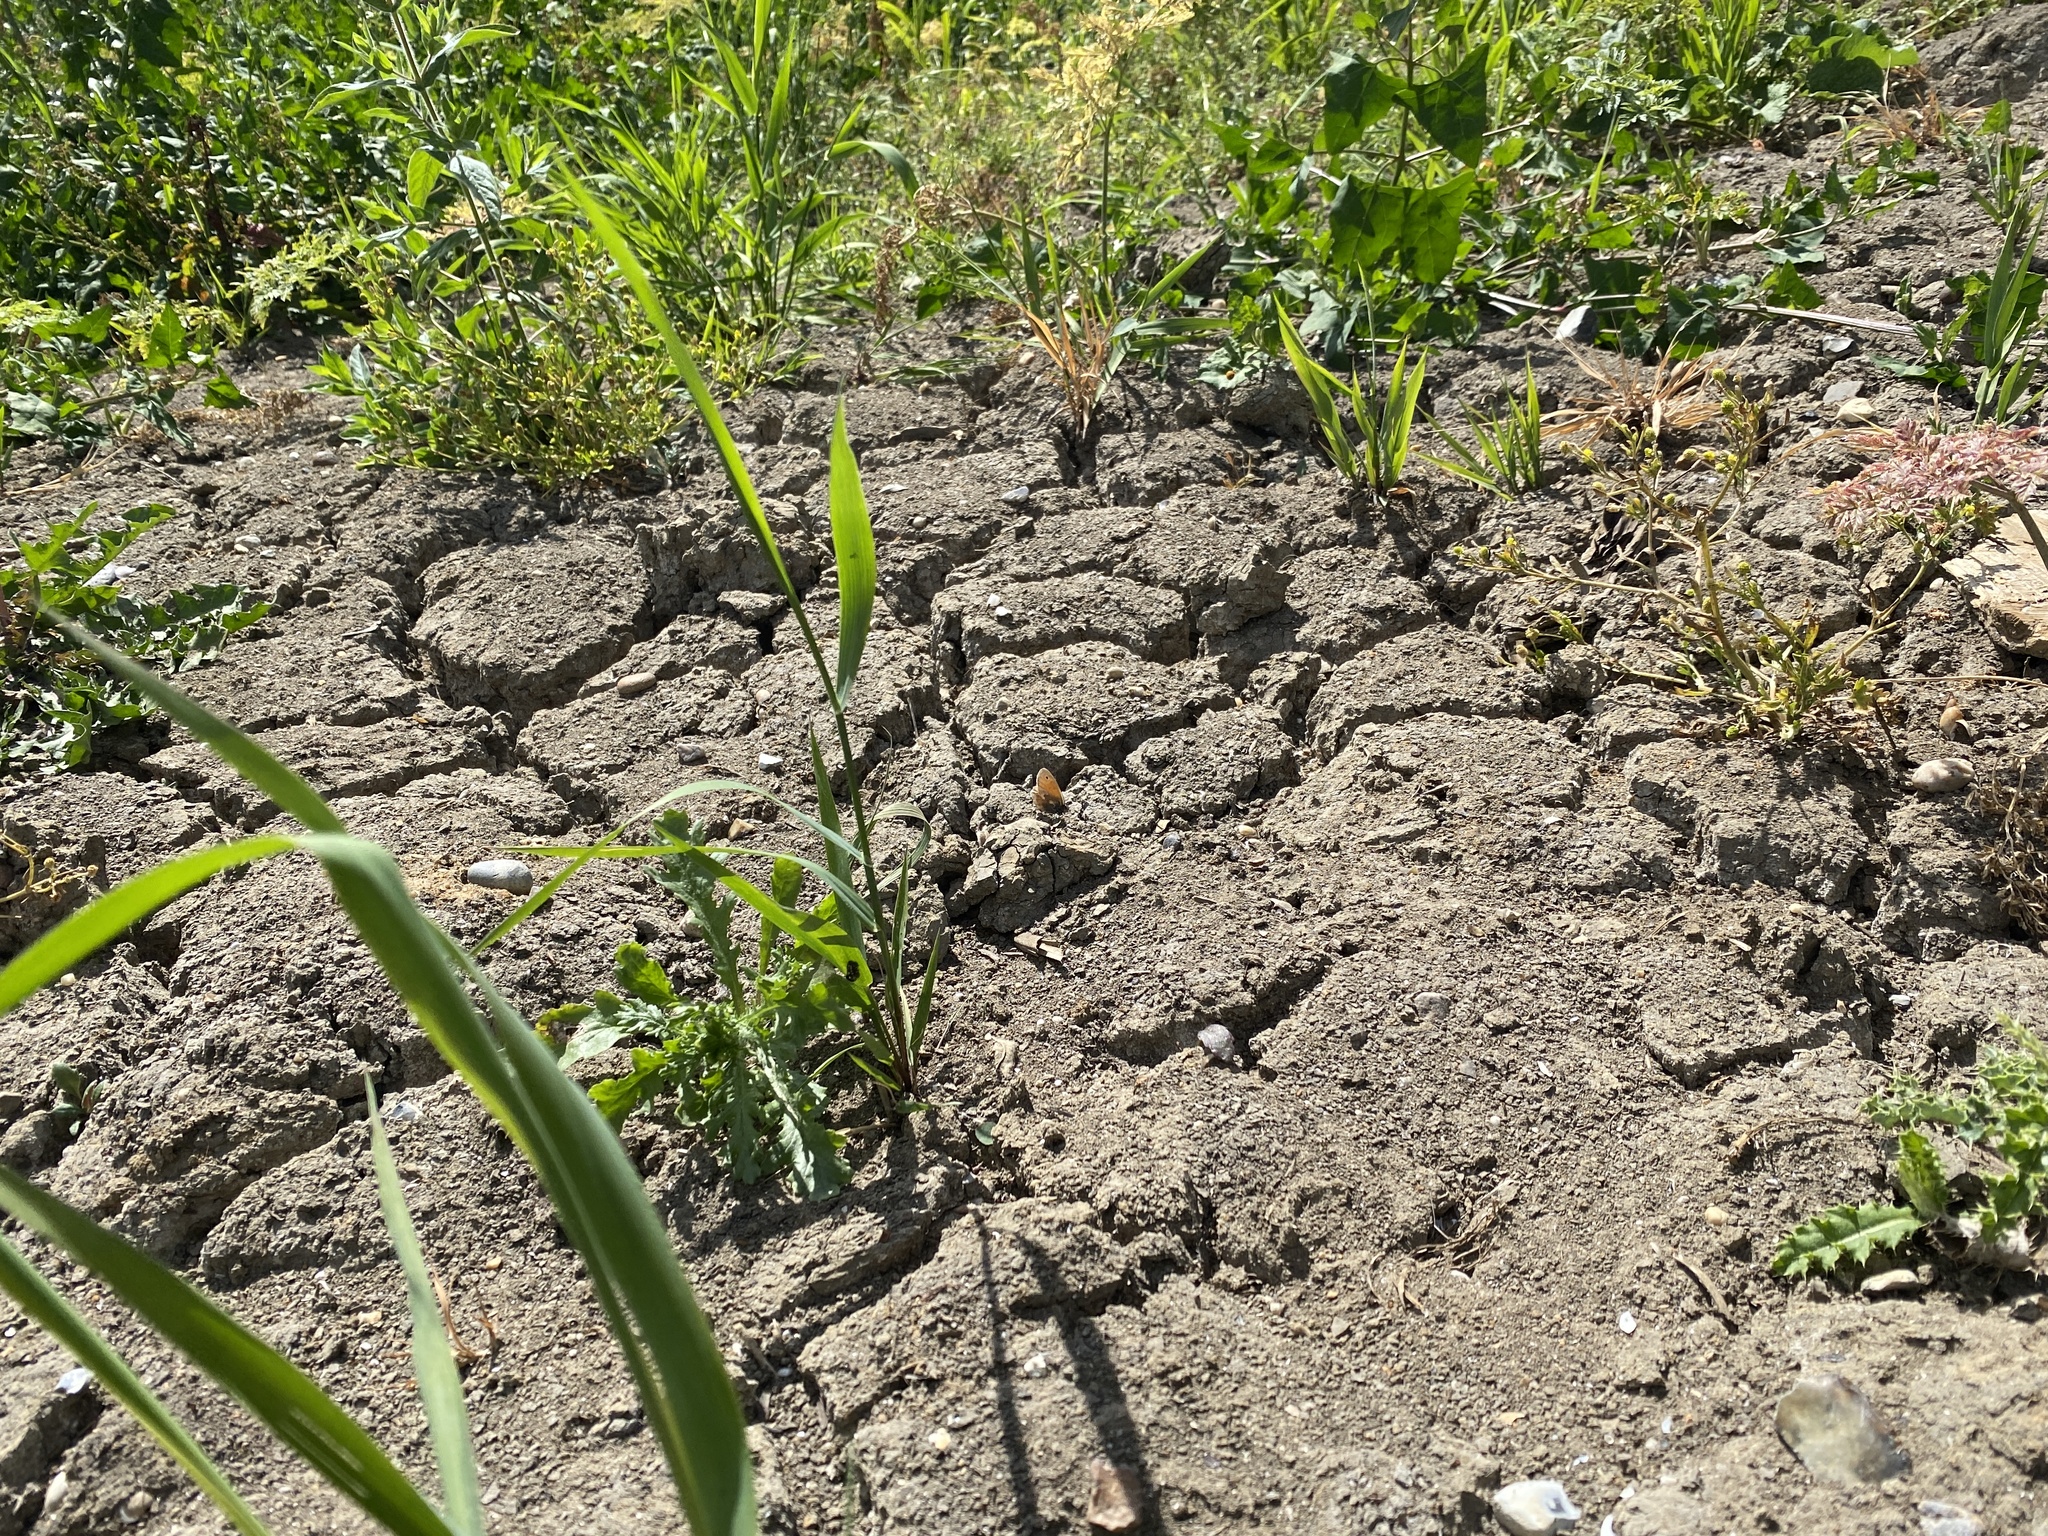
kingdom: Animalia
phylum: Arthropoda
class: Insecta
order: Lepidoptera
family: Nymphalidae
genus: Coenonympha
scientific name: Coenonympha pamphilus
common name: Small heath
